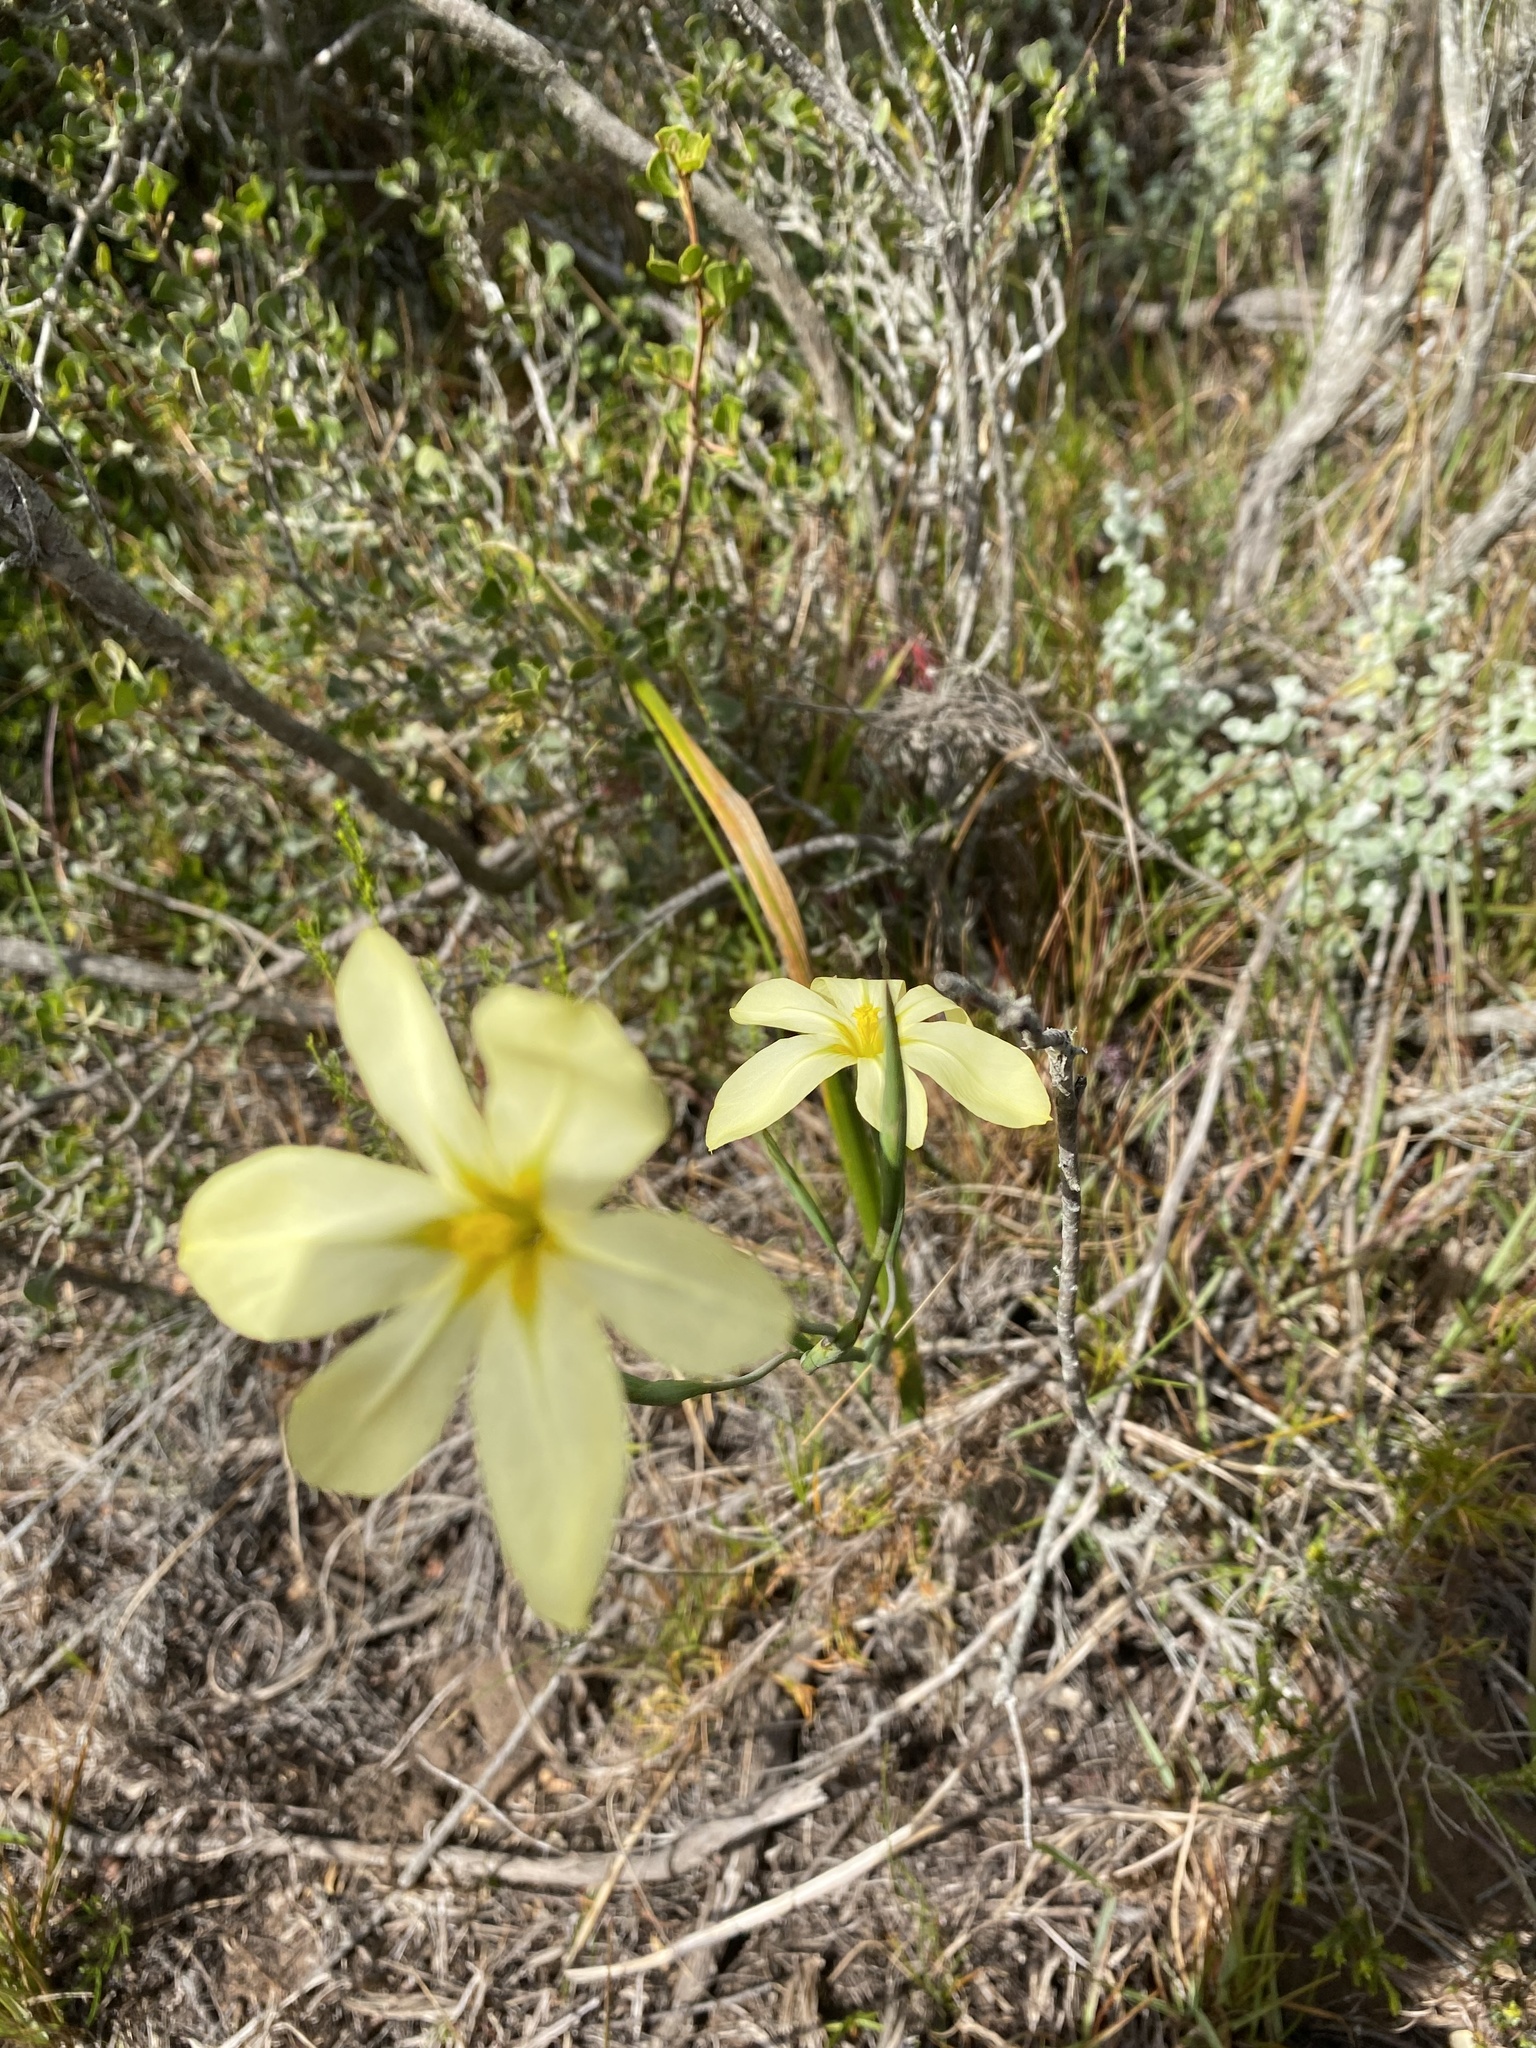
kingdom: Plantae
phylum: Tracheophyta
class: Liliopsida
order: Asparagales
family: Iridaceae
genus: Moraea
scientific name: Moraea bulbillifera
